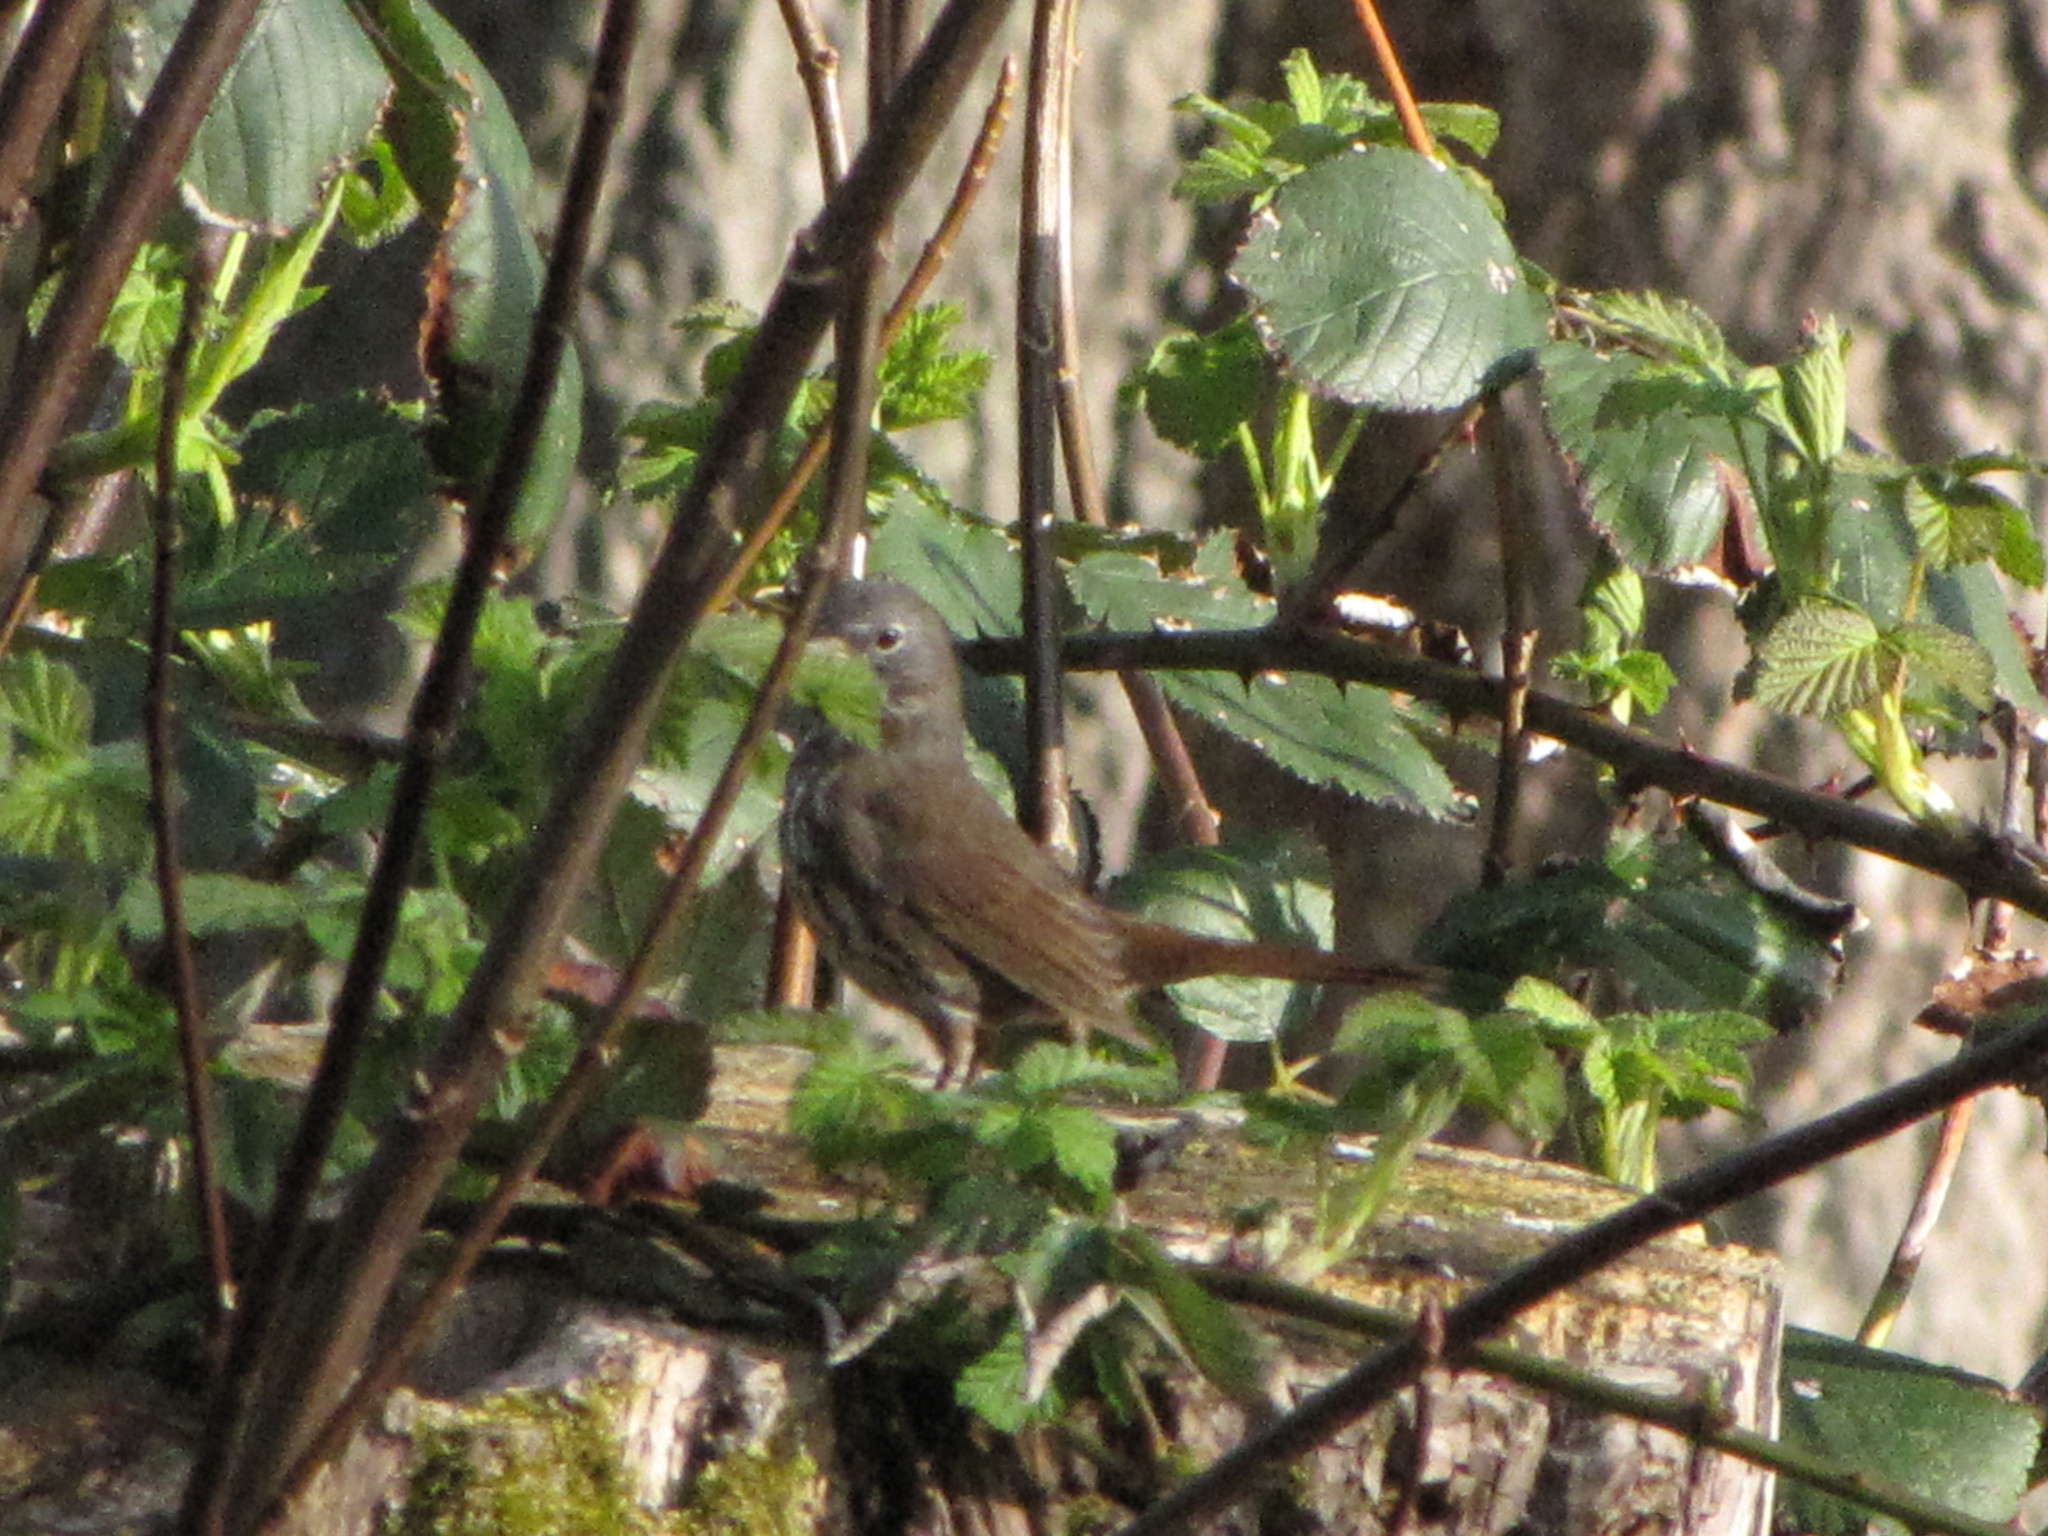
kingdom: Animalia
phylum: Chordata
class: Aves
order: Passeriformes
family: Passerellidae
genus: Passerella
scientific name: Passerella iliaca
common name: Fox sparrow
